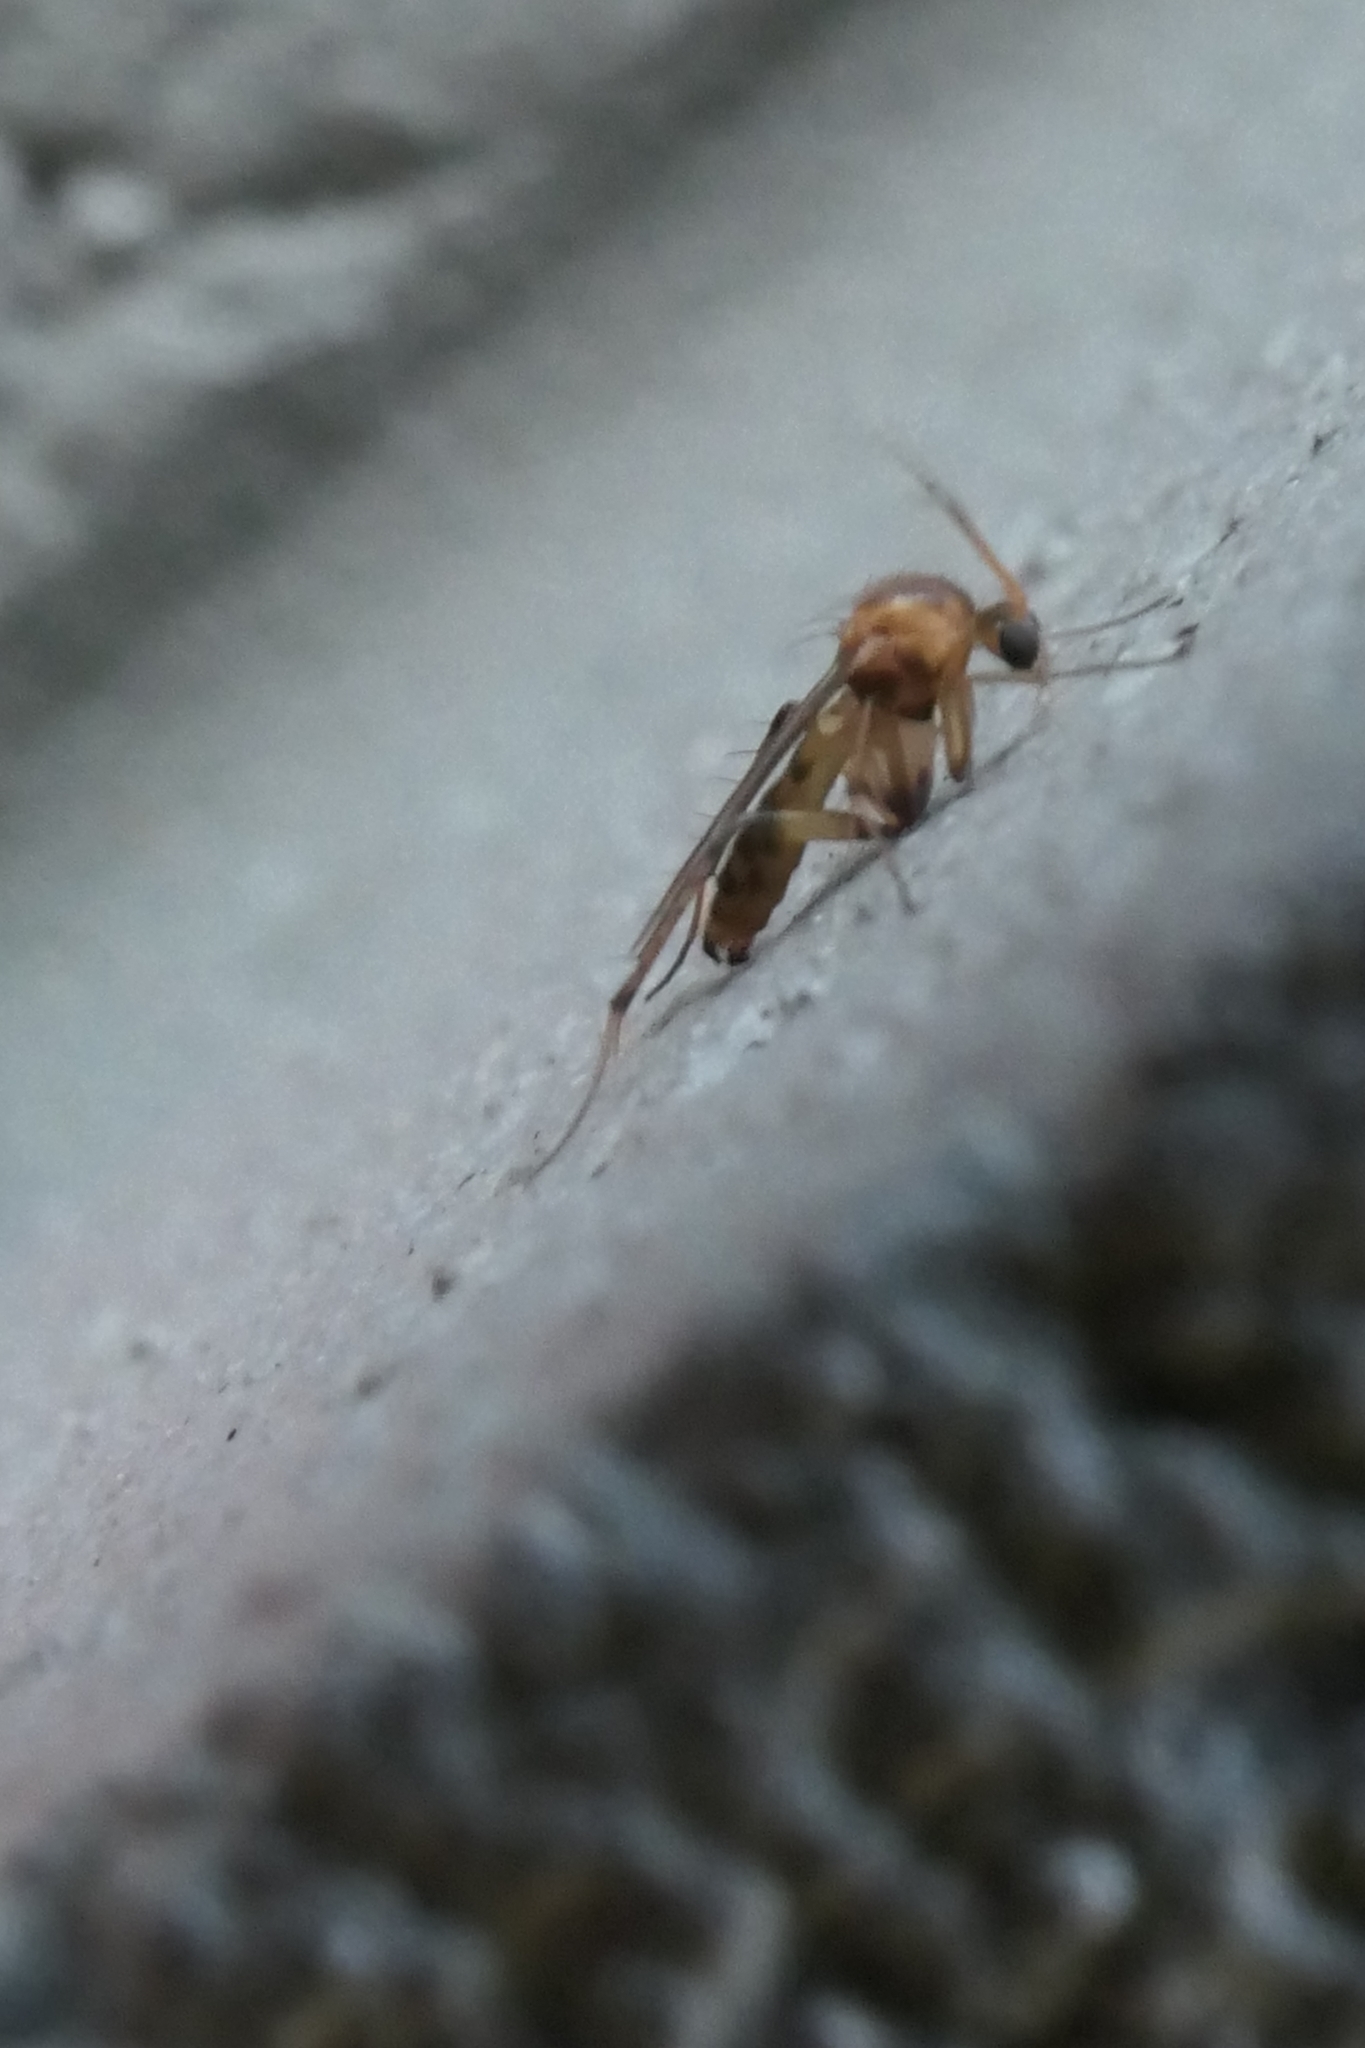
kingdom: Animalia
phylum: Arthropoda
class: Insecta
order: Diptera
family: Mycetophilidae
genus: Anomalomyia
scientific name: Anomalomyia guttata
